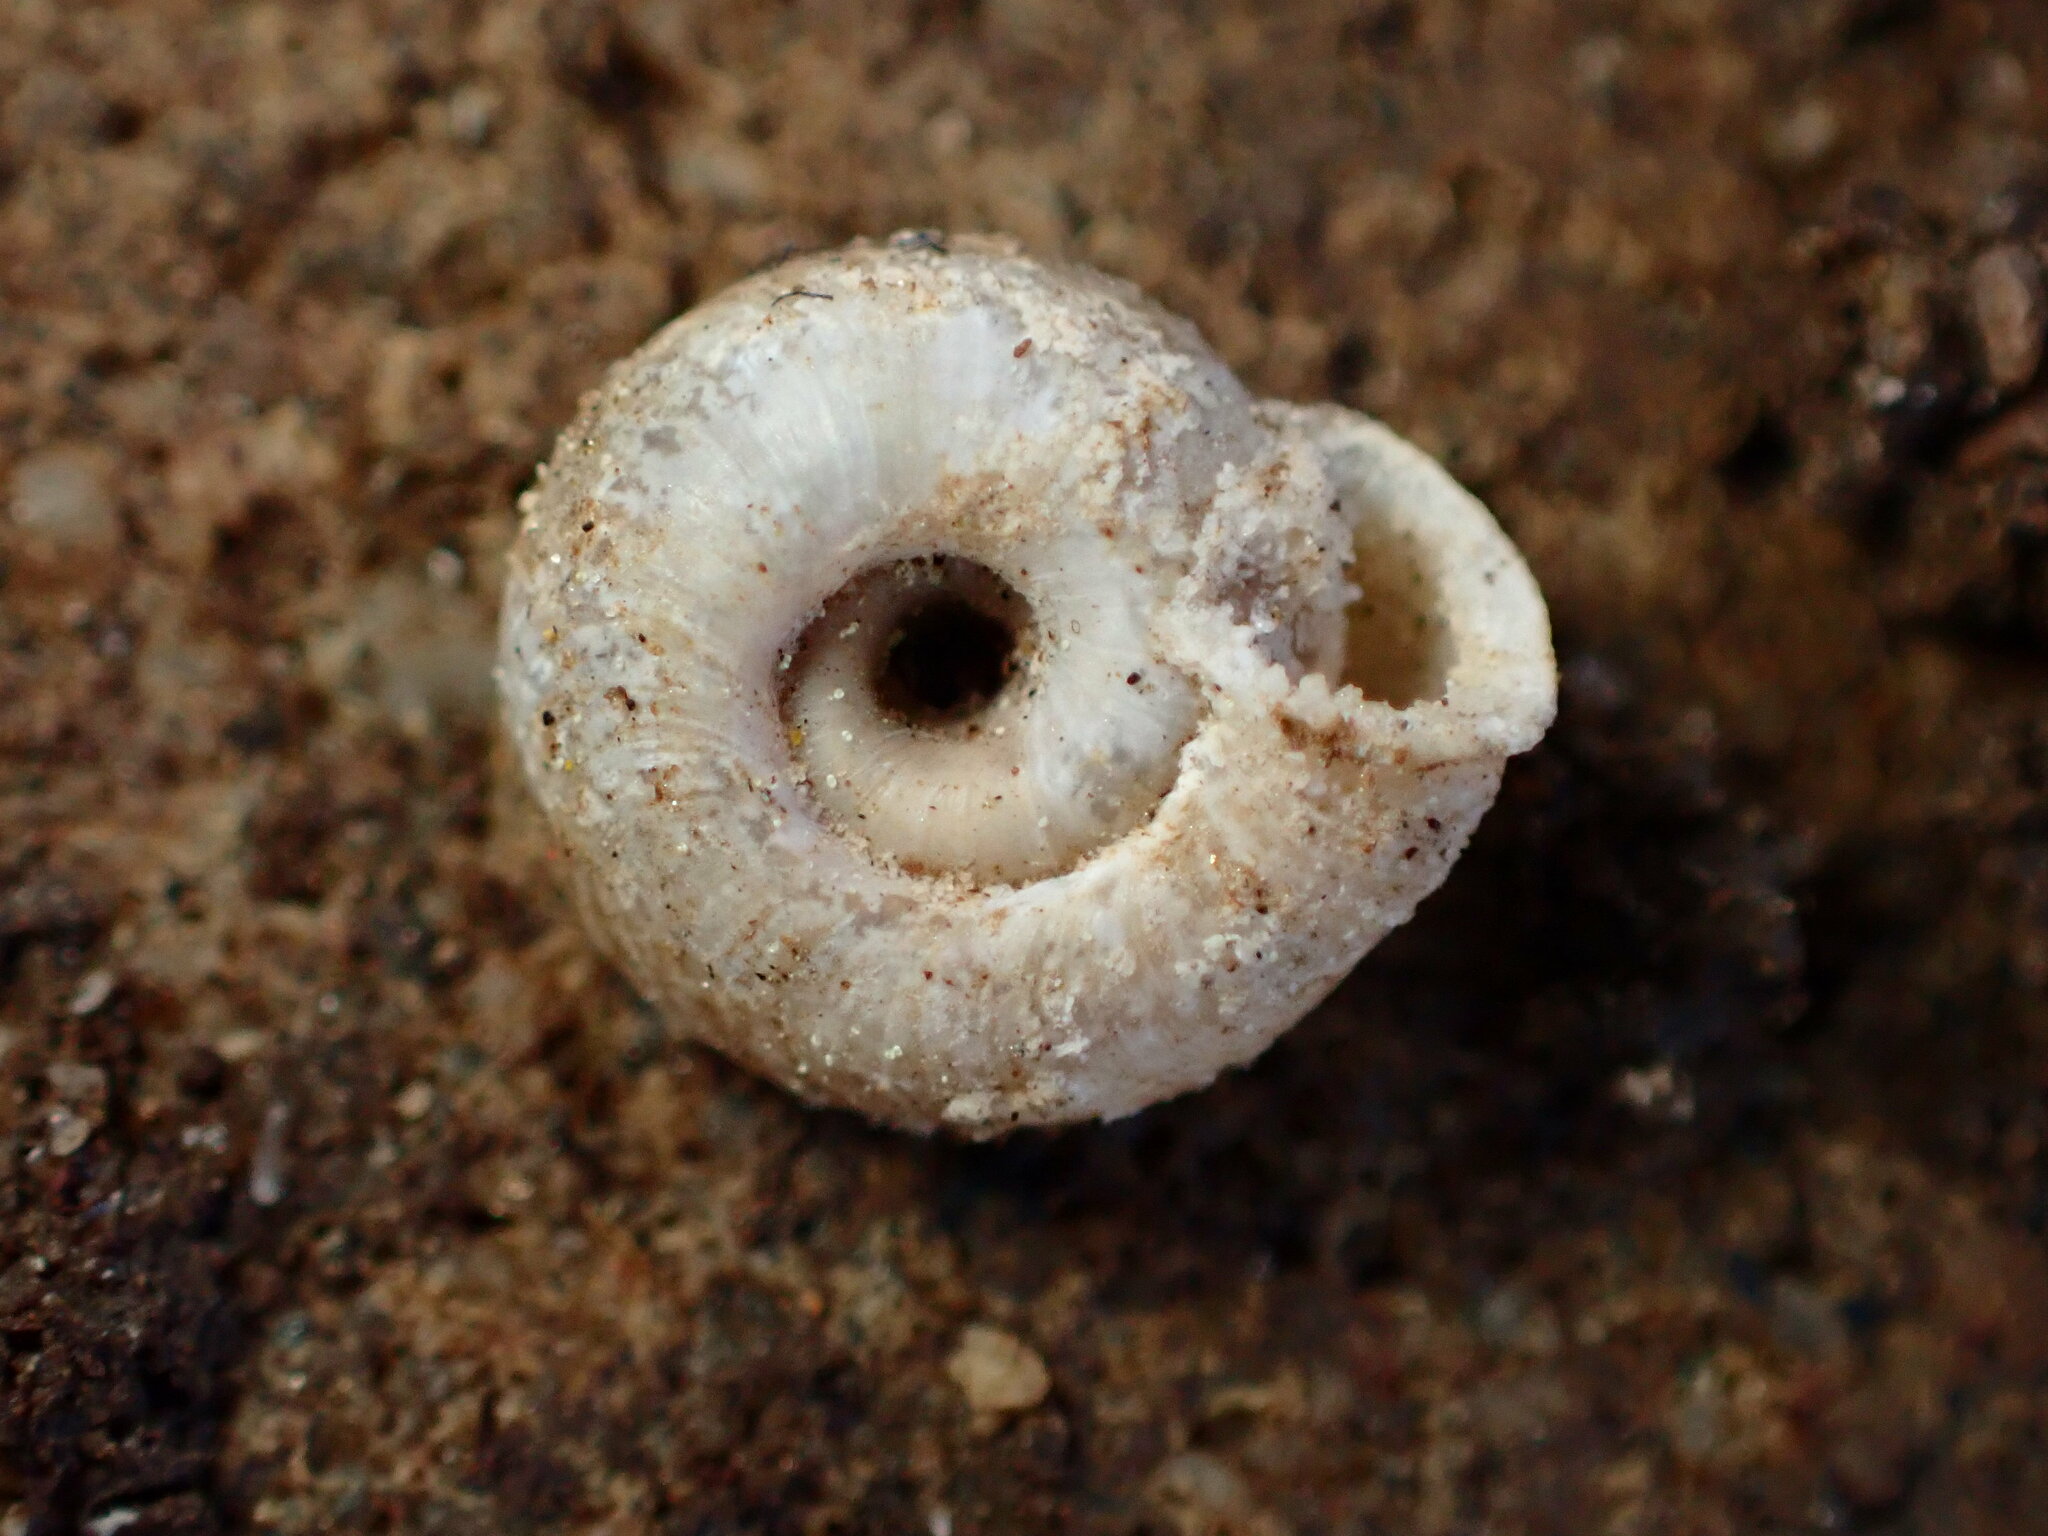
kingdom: Animalia
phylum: Mollusca
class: Gastropoda
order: Stylommatophora
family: Polygyridae
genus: Polygyra
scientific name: Polygyra cereolus
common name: Southern flatcone snail
